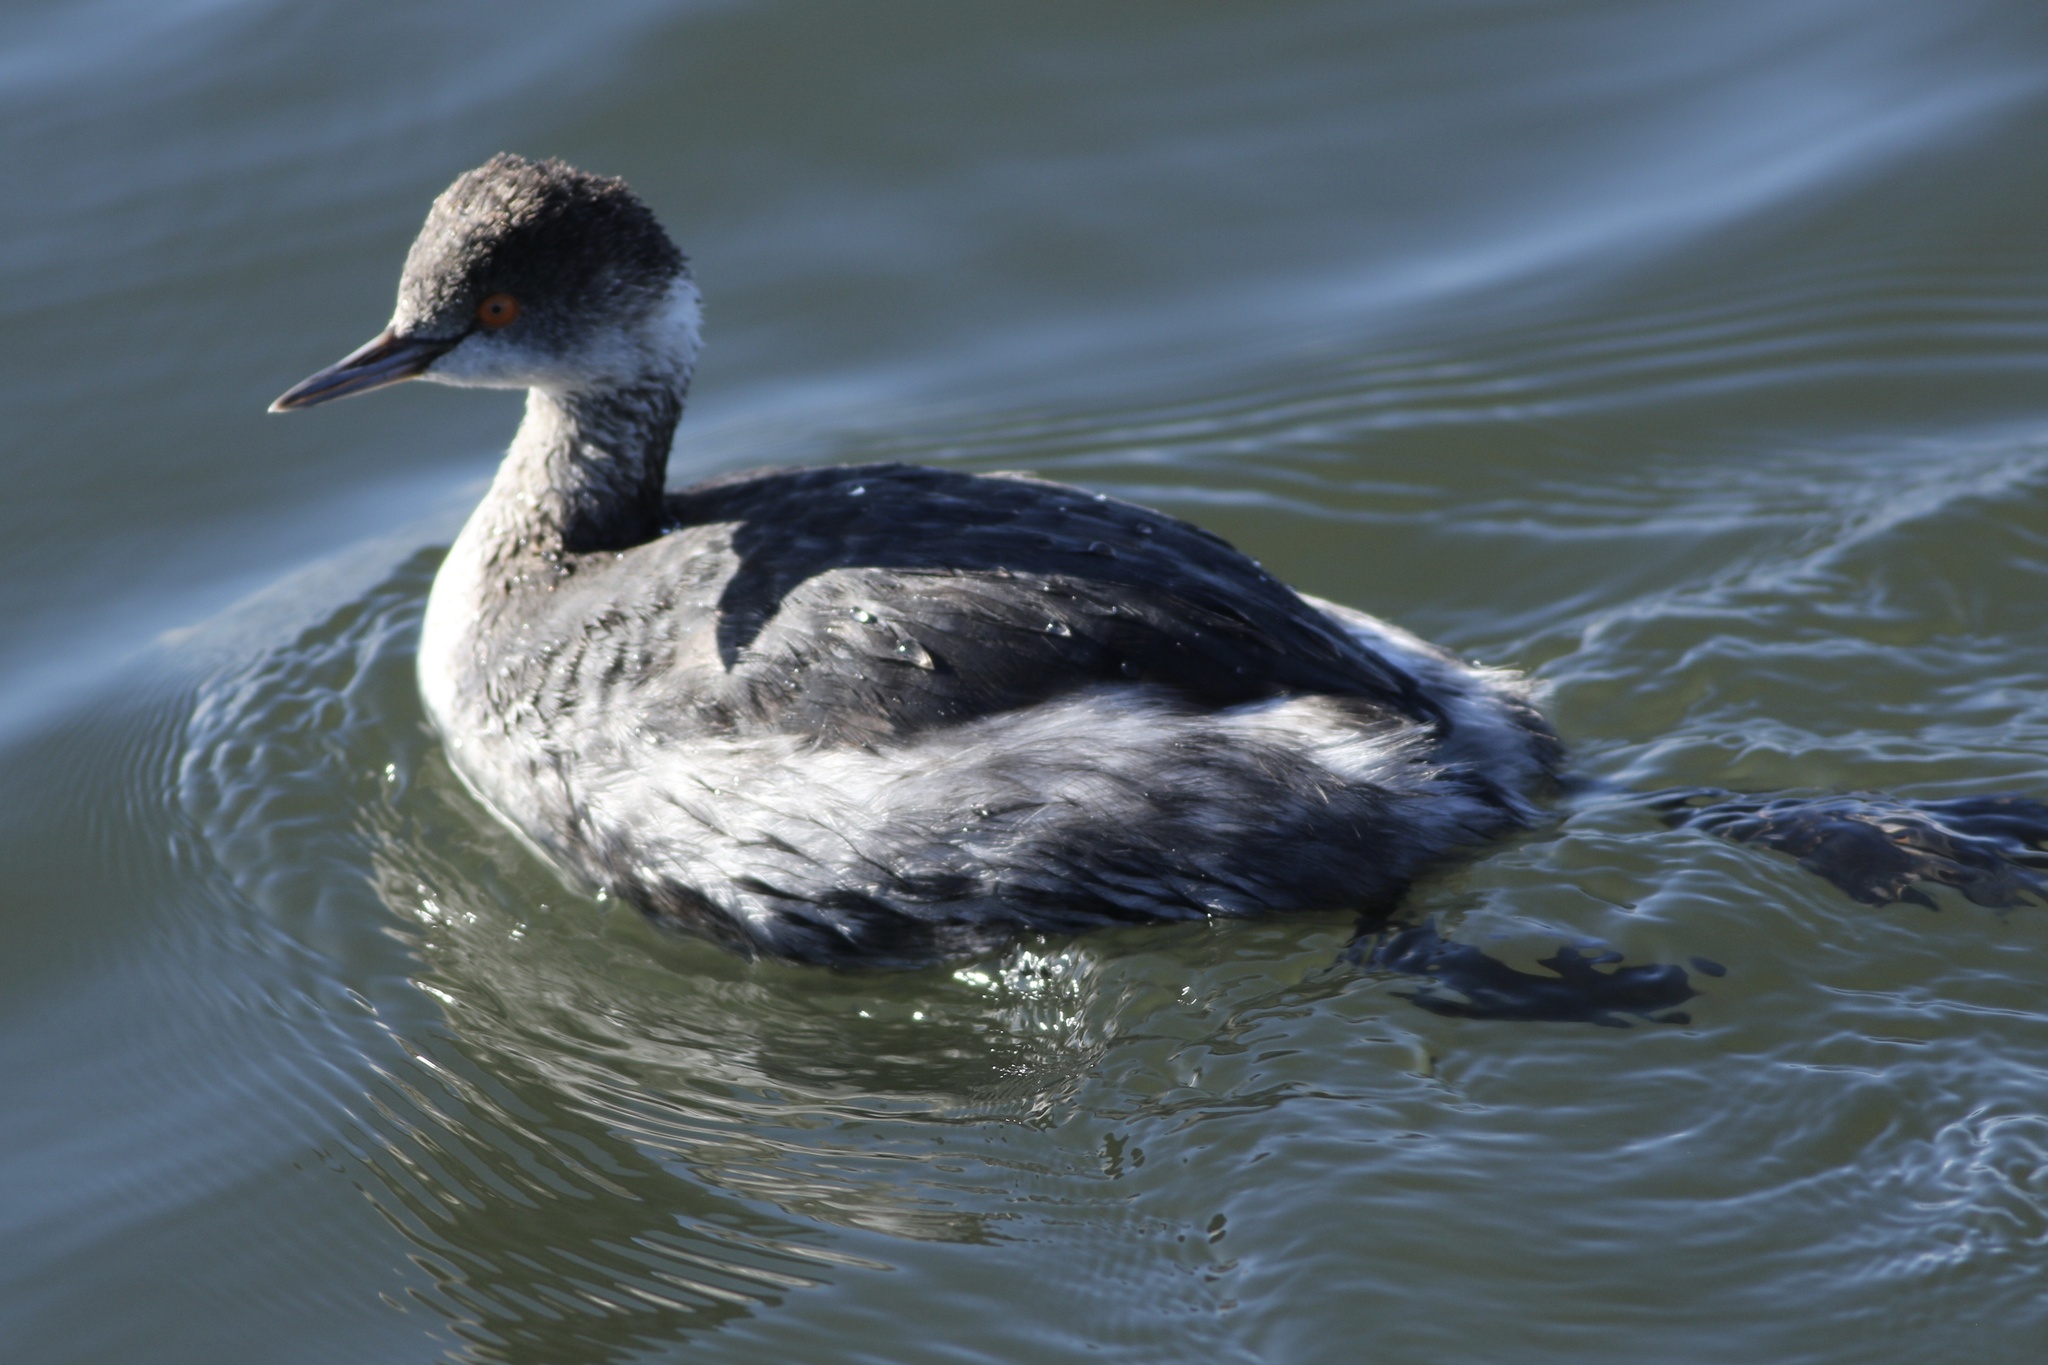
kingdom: Animalia
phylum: Chordata
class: Aves
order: Podicipediformes
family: Podicipedidae
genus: Podiceps
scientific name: Podiceps nigricollis
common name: Black-necked grebe
